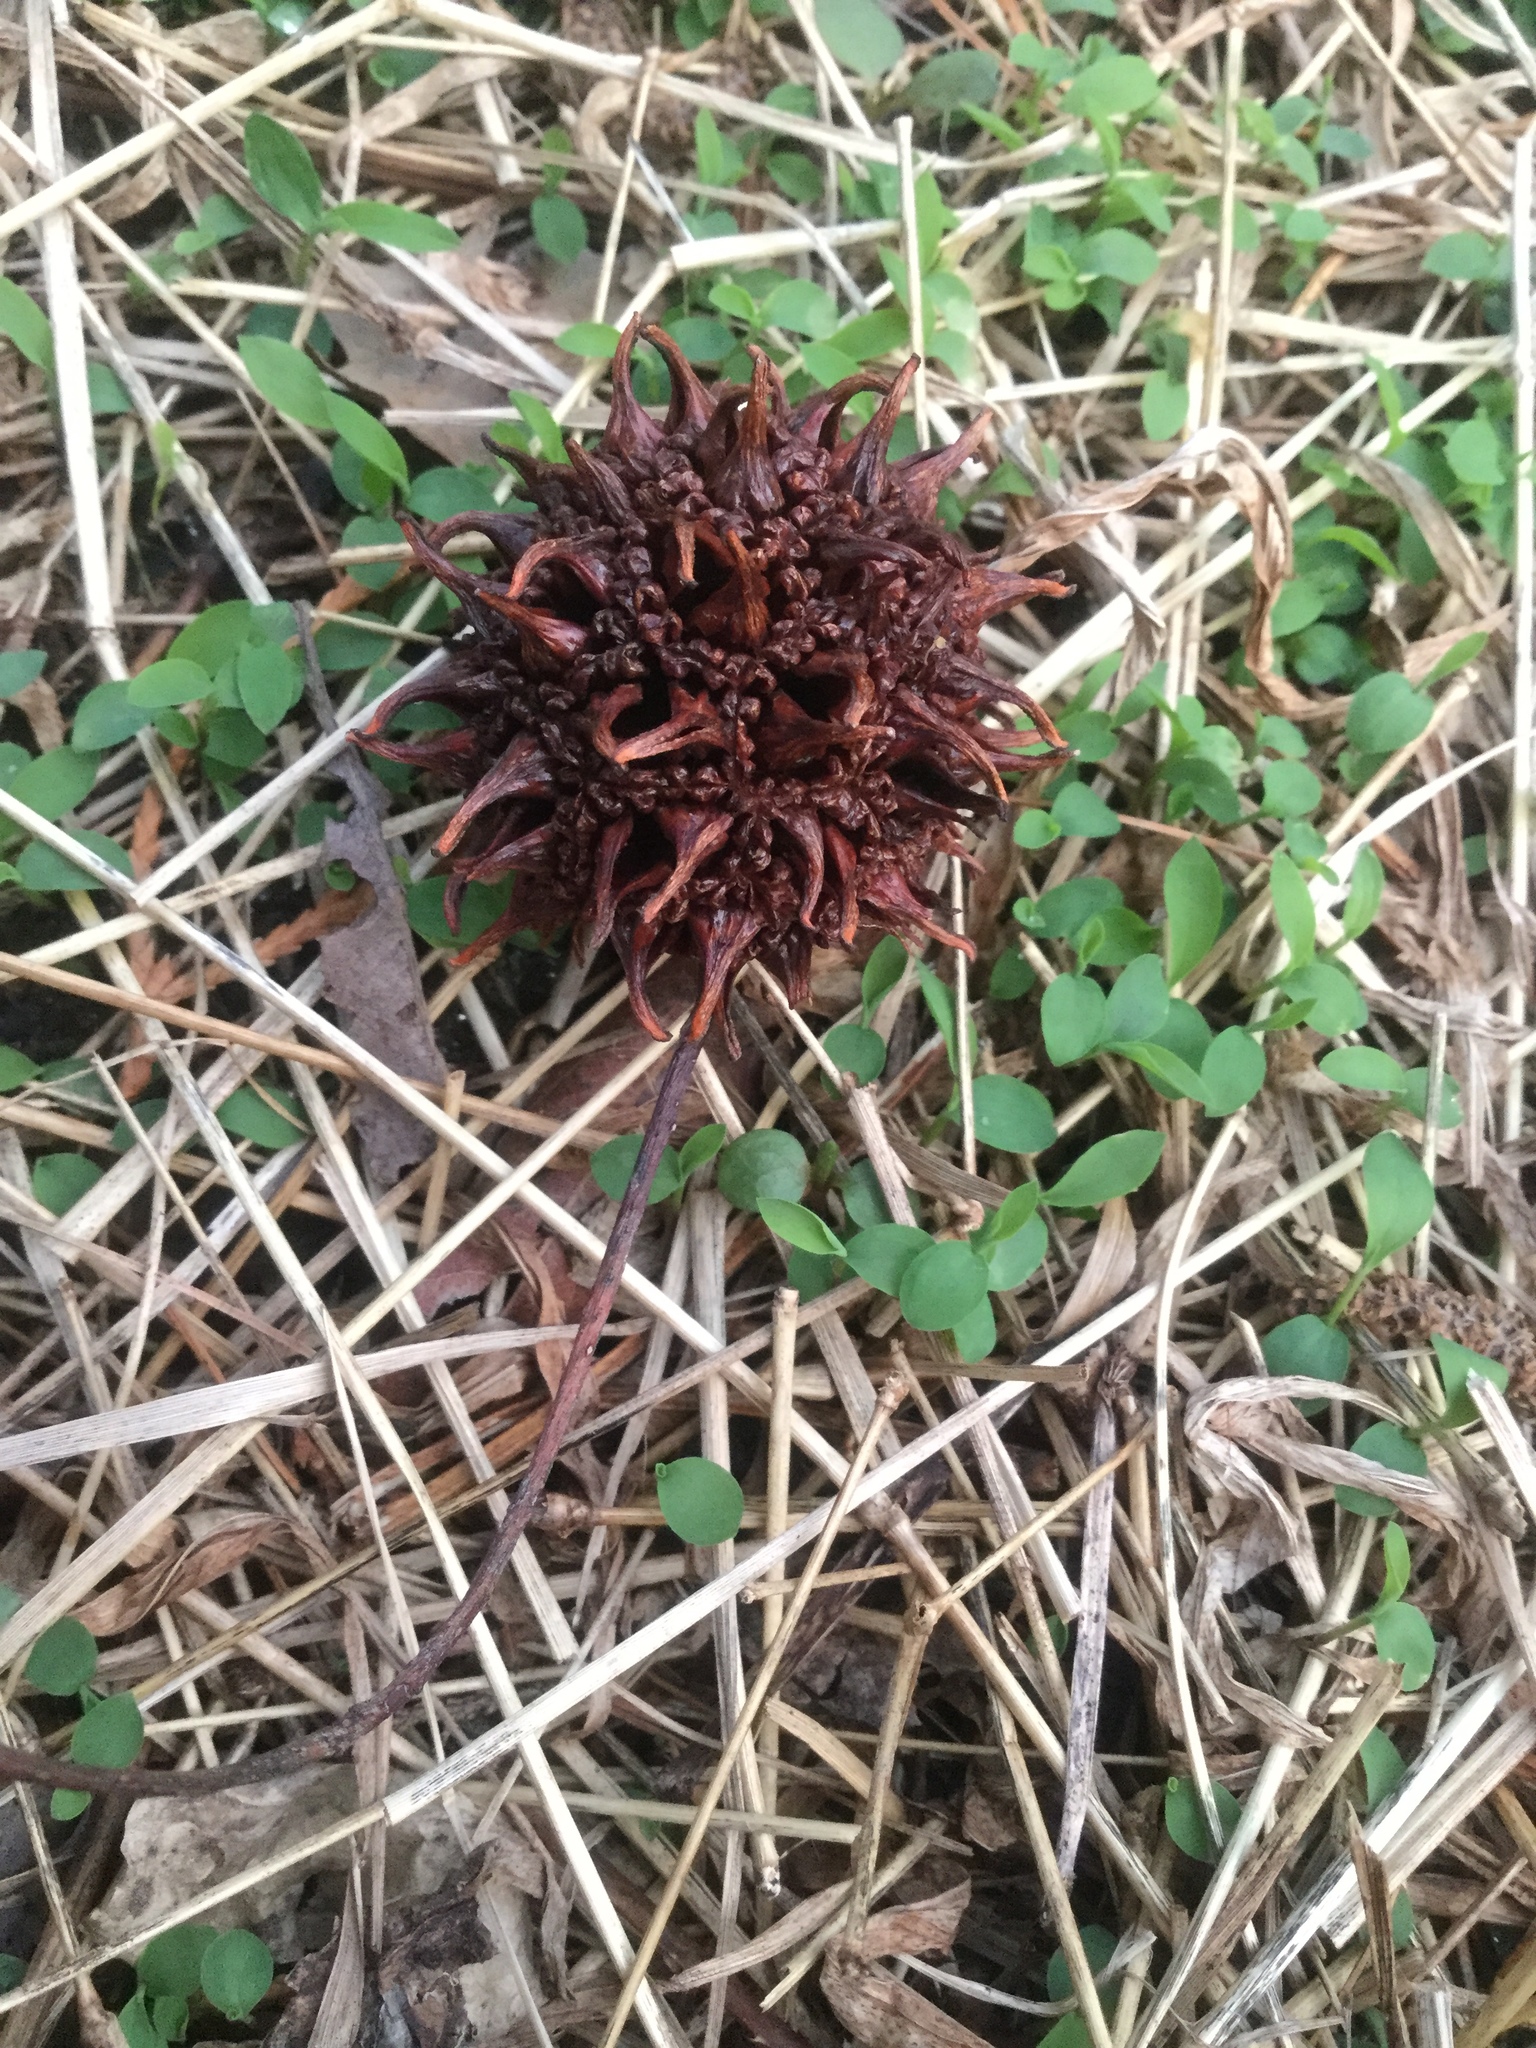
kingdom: Plantae
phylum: Tracheophyta
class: Magnoliopsida
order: Saxifragales
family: Altingiaceae
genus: Liquidambar
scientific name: Liquidambar styraciflua
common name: Sweet gum
